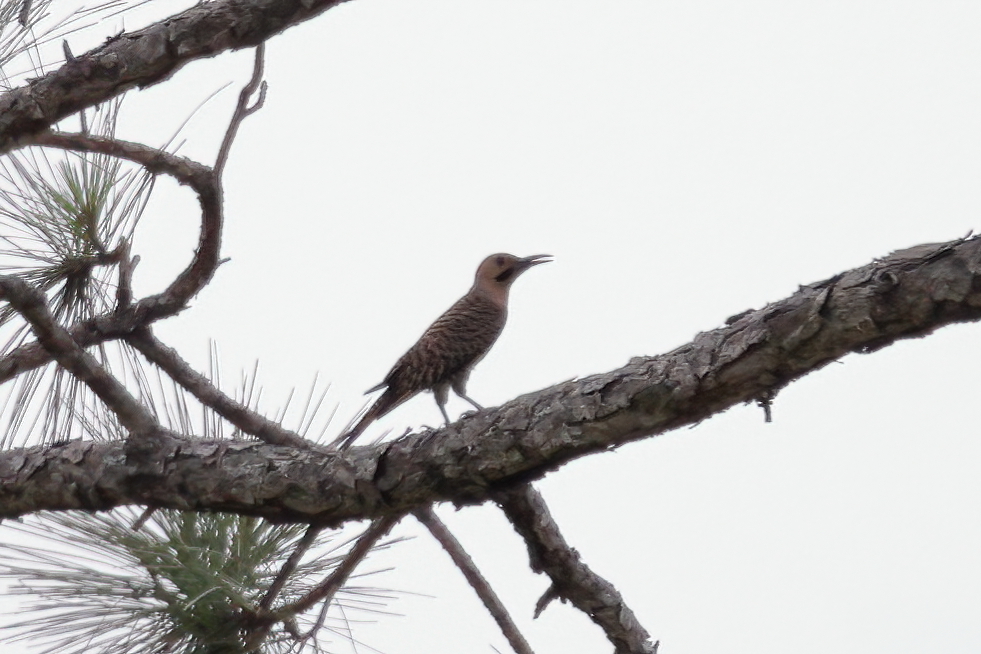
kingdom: Animalia
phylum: Chordata
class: Aves
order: Piciformes
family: Picidae
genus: Colaptes
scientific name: Colaptes auratus
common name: Northern flicker
